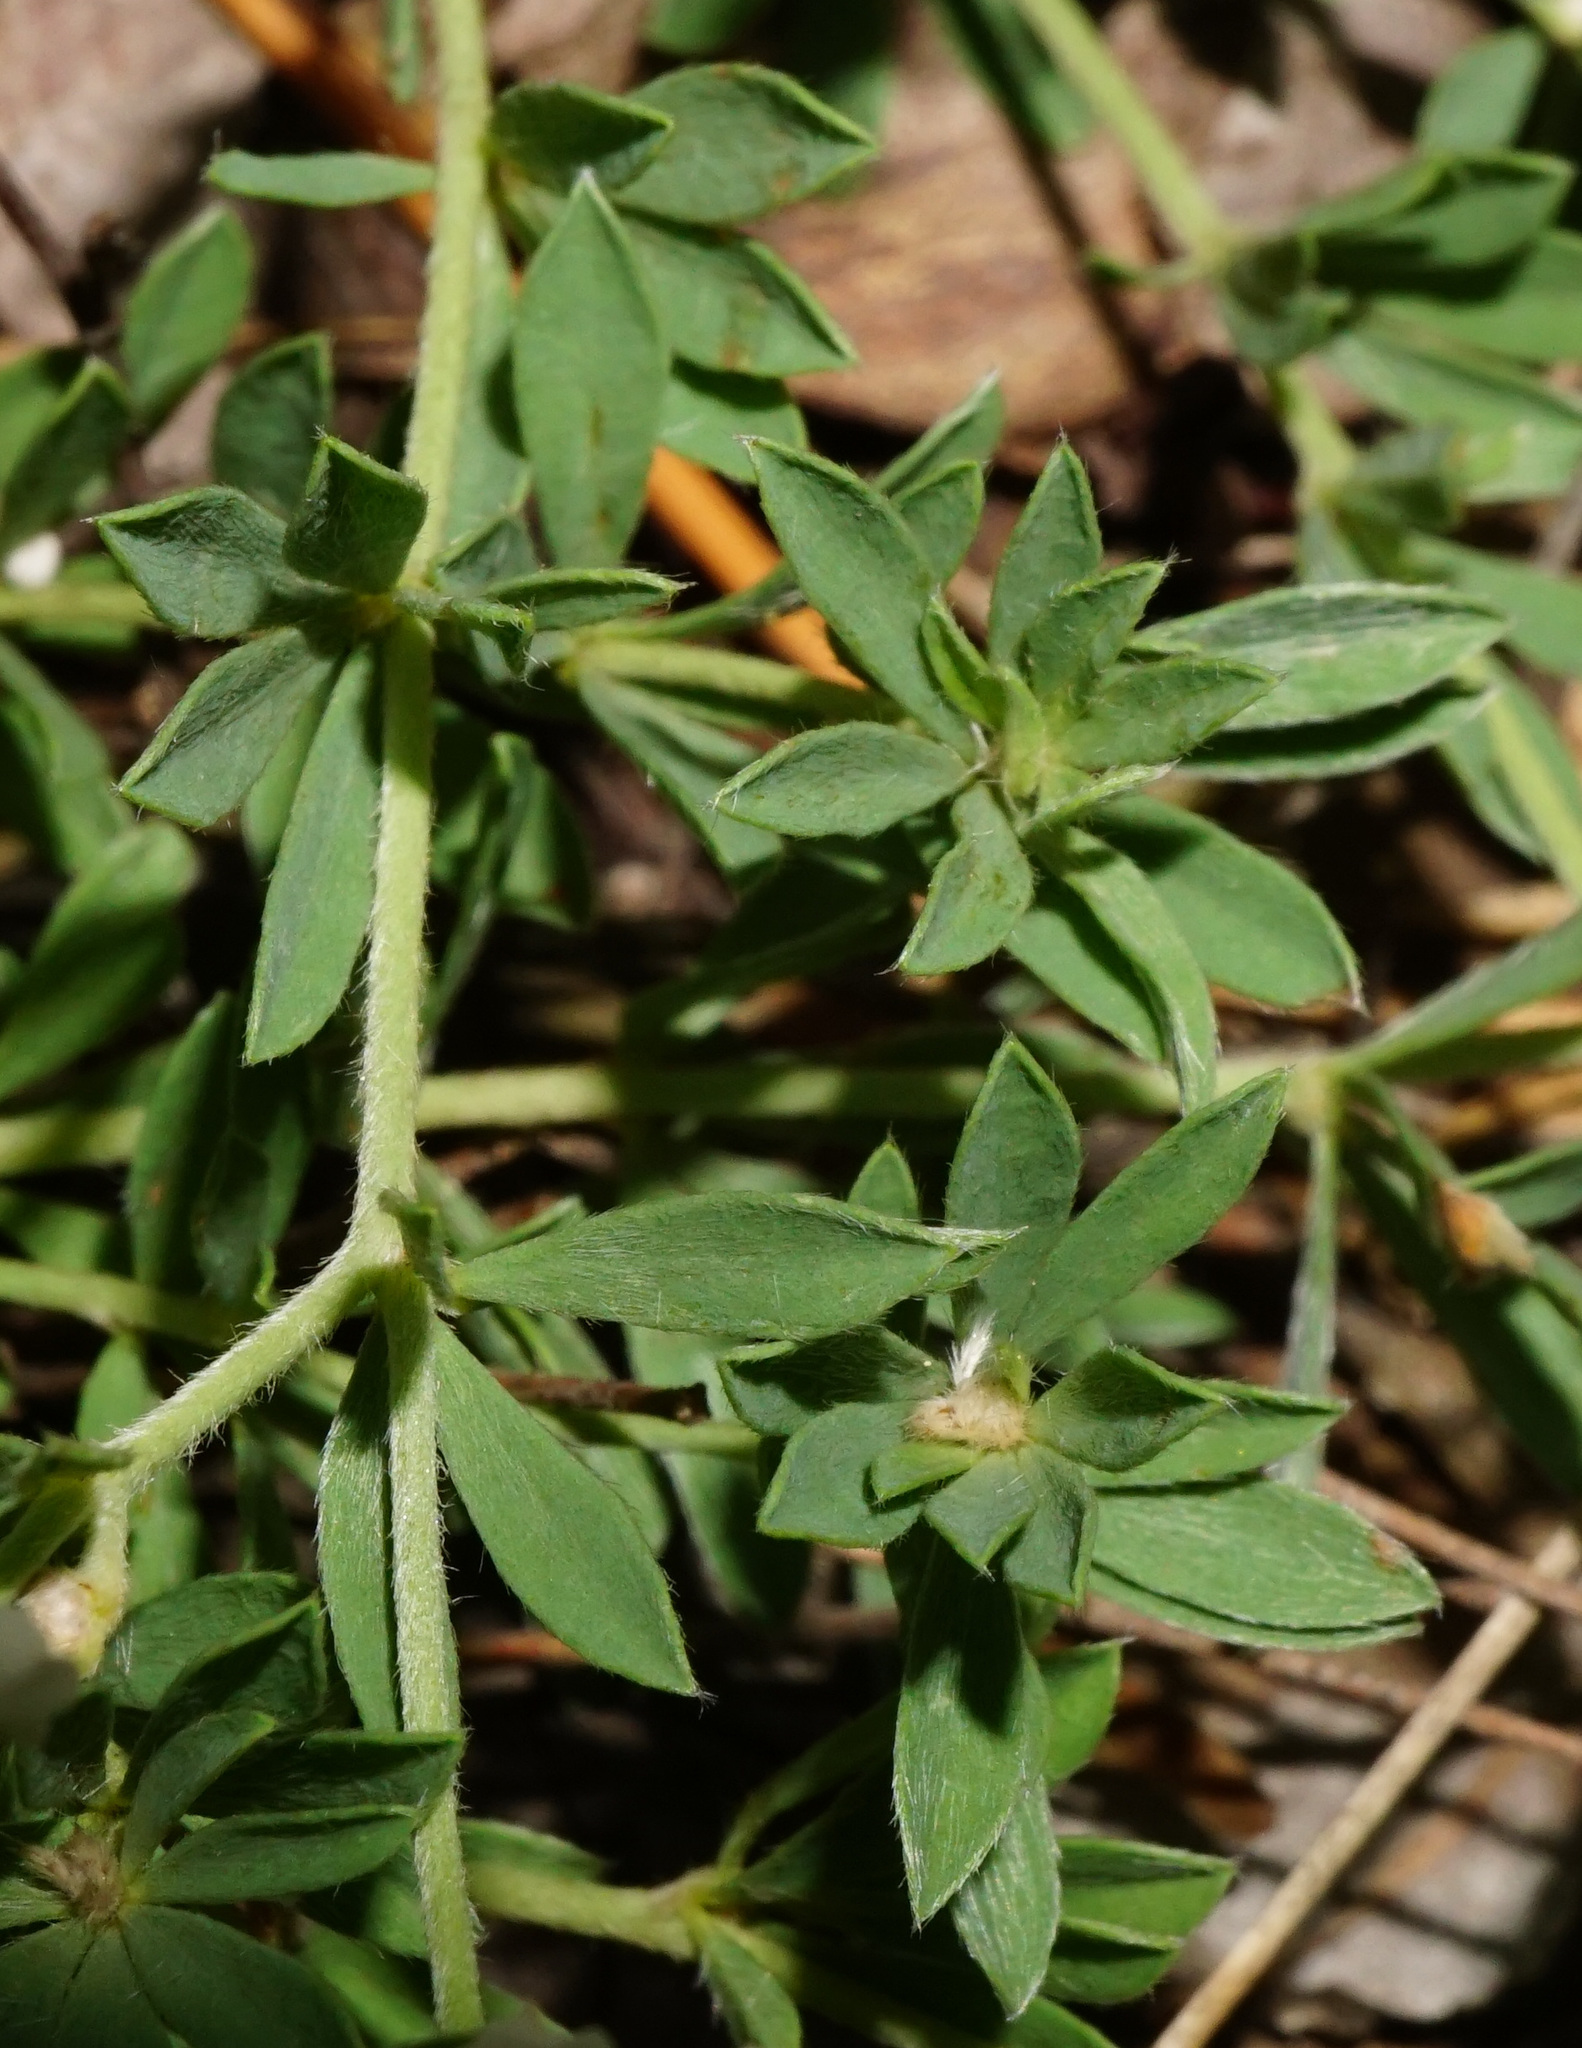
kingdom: Plantae
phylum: Tracheophyta
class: Magnoliopsida
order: Fabales
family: Fabaceae
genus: Lotus
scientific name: Lotus germanicus
